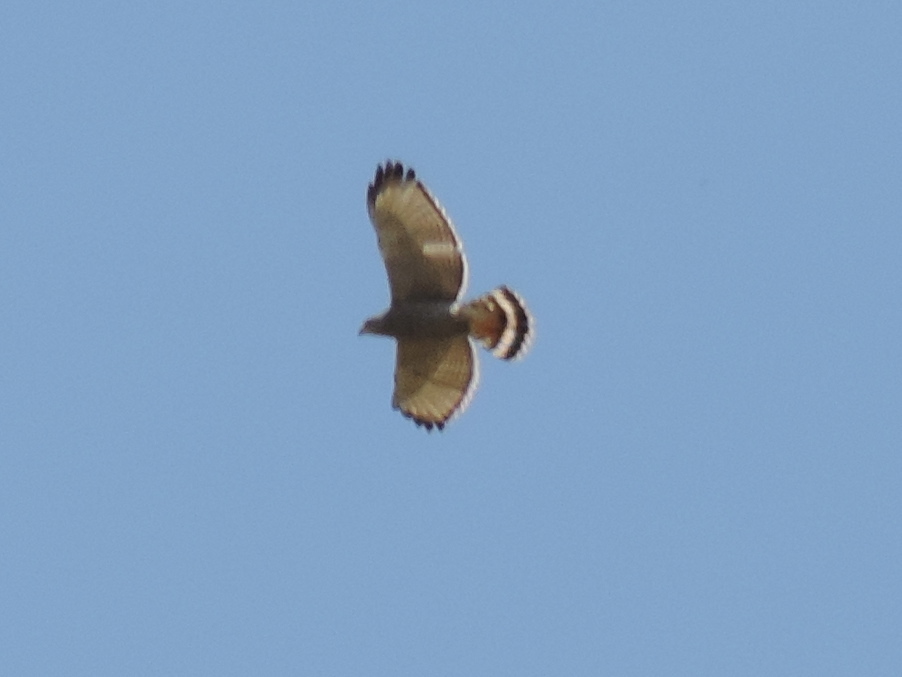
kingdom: Animalia
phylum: Chordata
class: Aves
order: Accipitriformes
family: Accipitridae
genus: Buteo
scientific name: Buteo nitidus
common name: Grey-lined hawk
